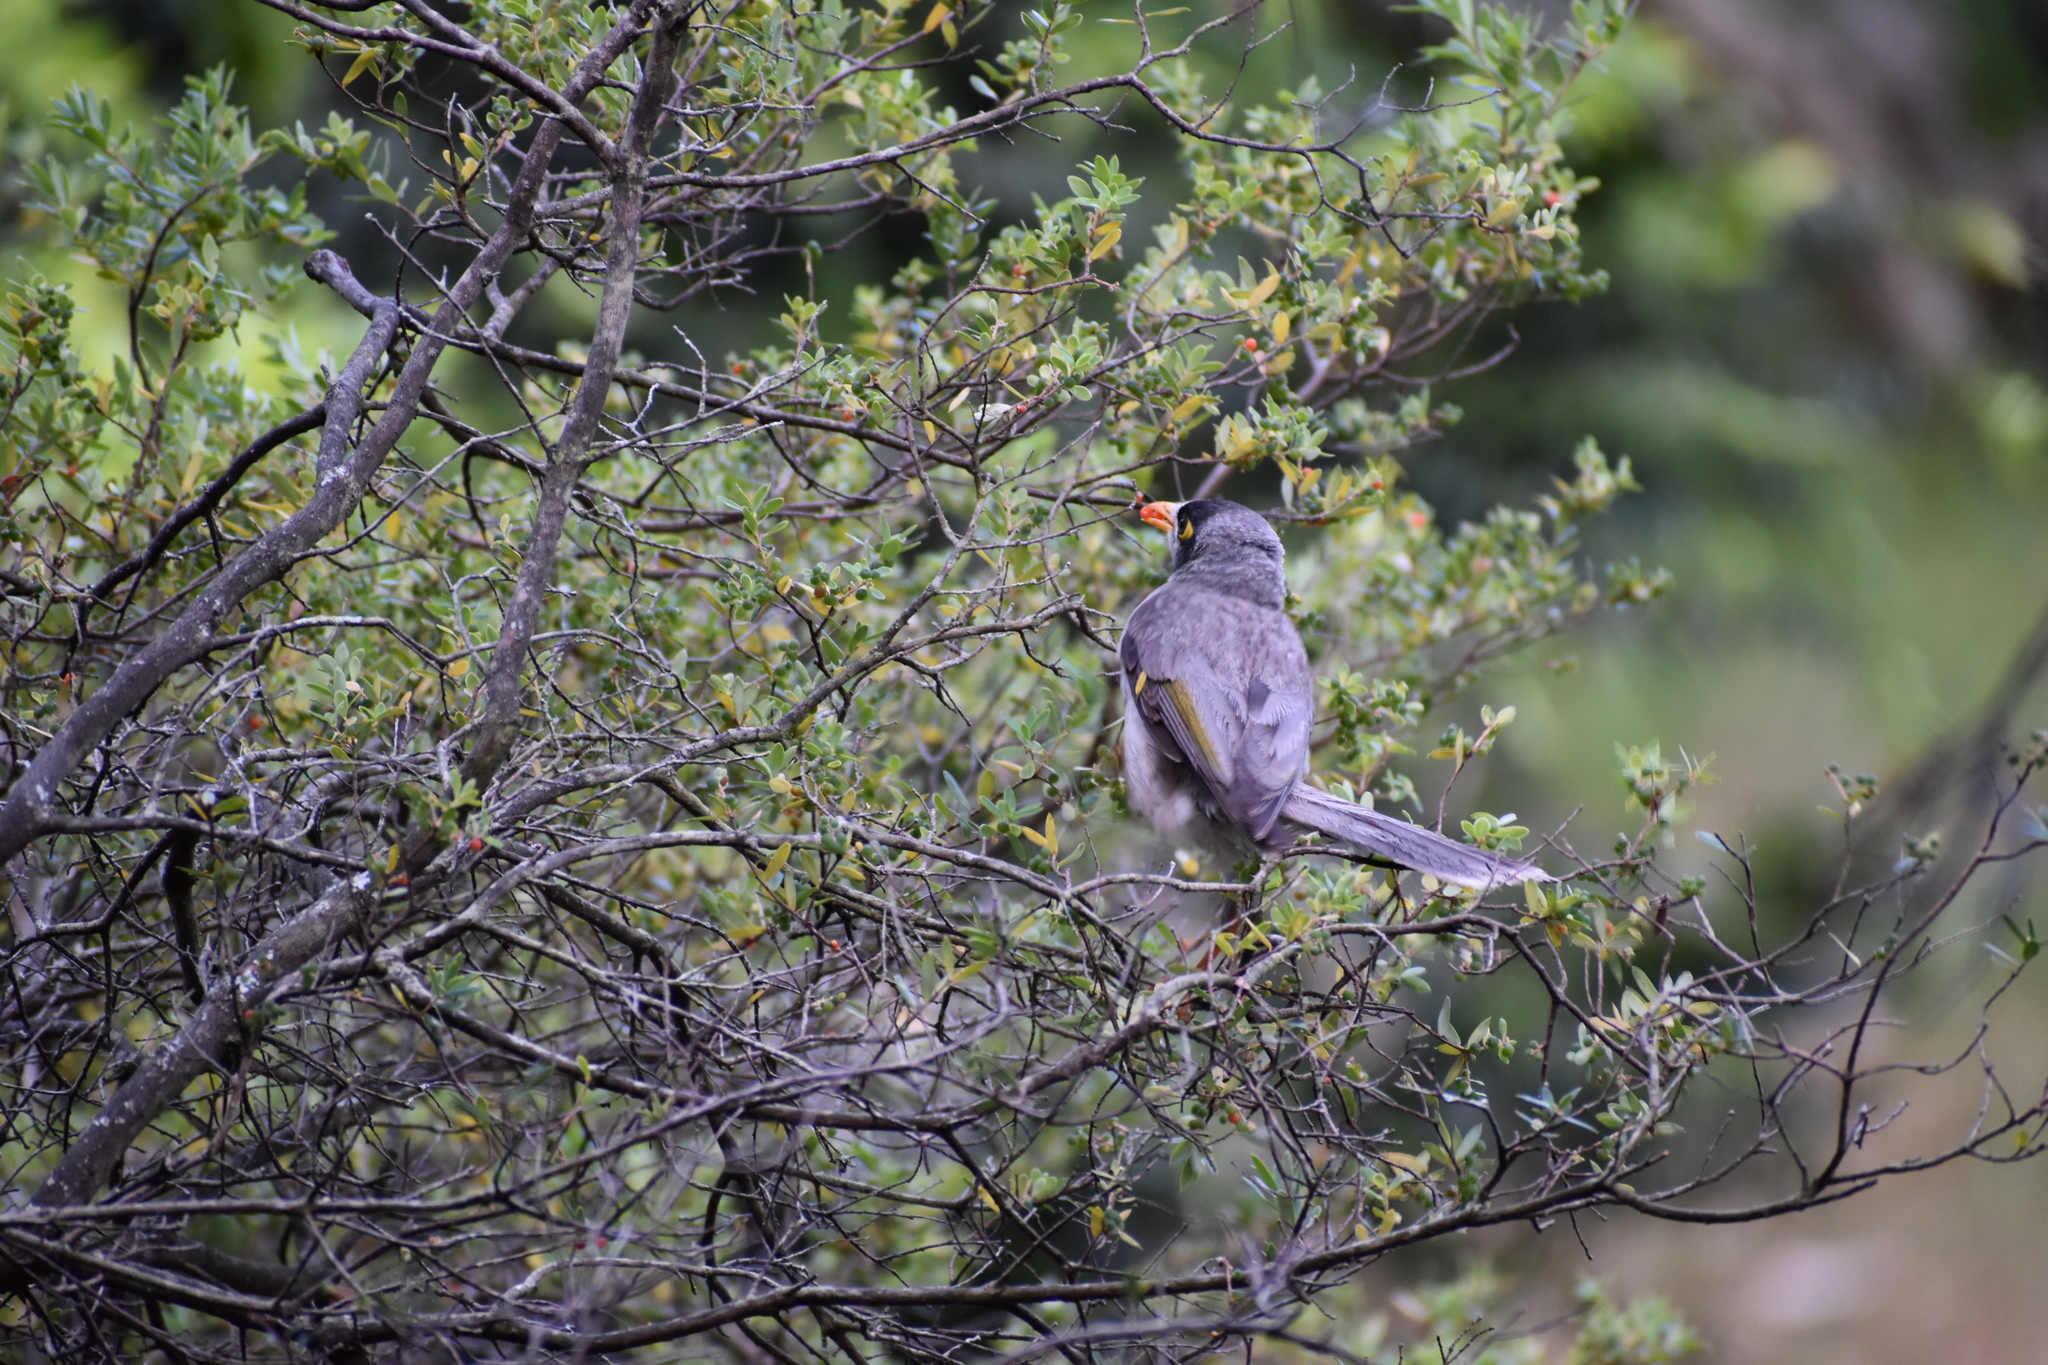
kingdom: Animalia
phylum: Chordata
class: Aves
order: Passeriformes
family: Meliphagidae
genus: Manorina
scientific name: Manorina melanocephala
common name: Noisy miner
